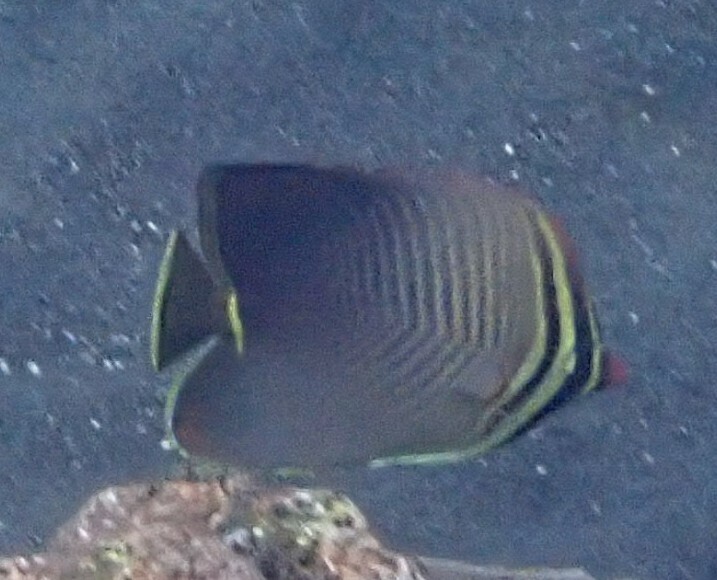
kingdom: Animalia
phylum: Chordata
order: Perciformes
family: Chaetodontidae
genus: Chaetodon
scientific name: Chaetodon baronessa
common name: Triangular butterflyfish
